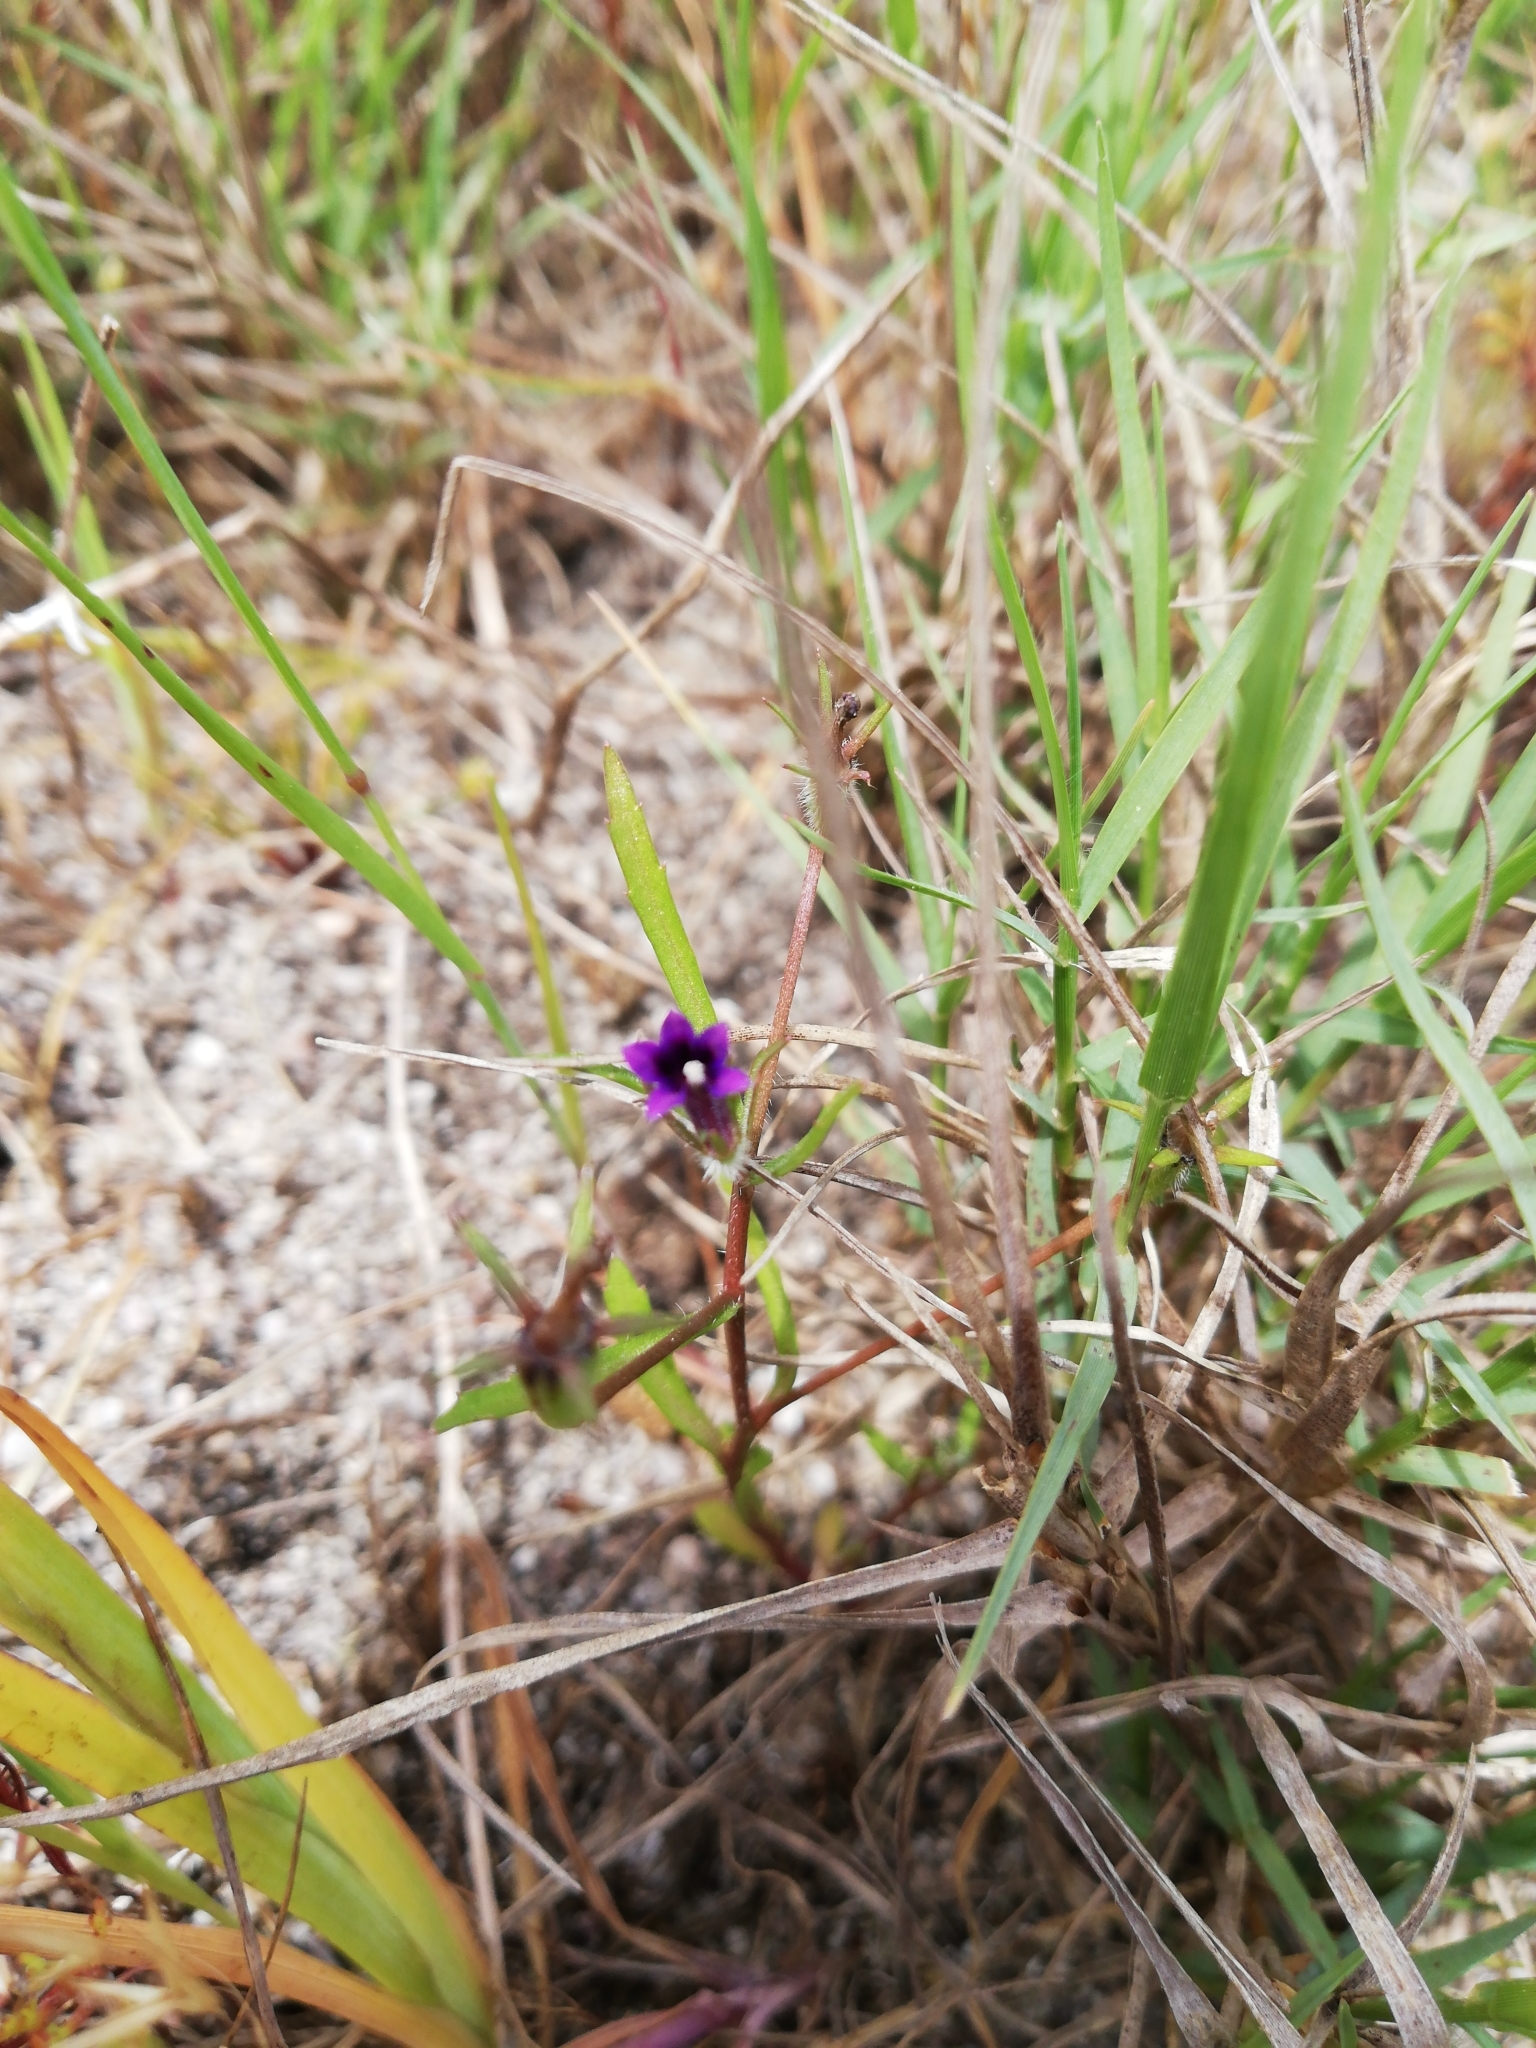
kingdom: Plantae
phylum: Tracheophyta
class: Magnoliopsida
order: Asterales
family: Campanulaceae
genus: Monopsis
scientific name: Monopsis debilis
